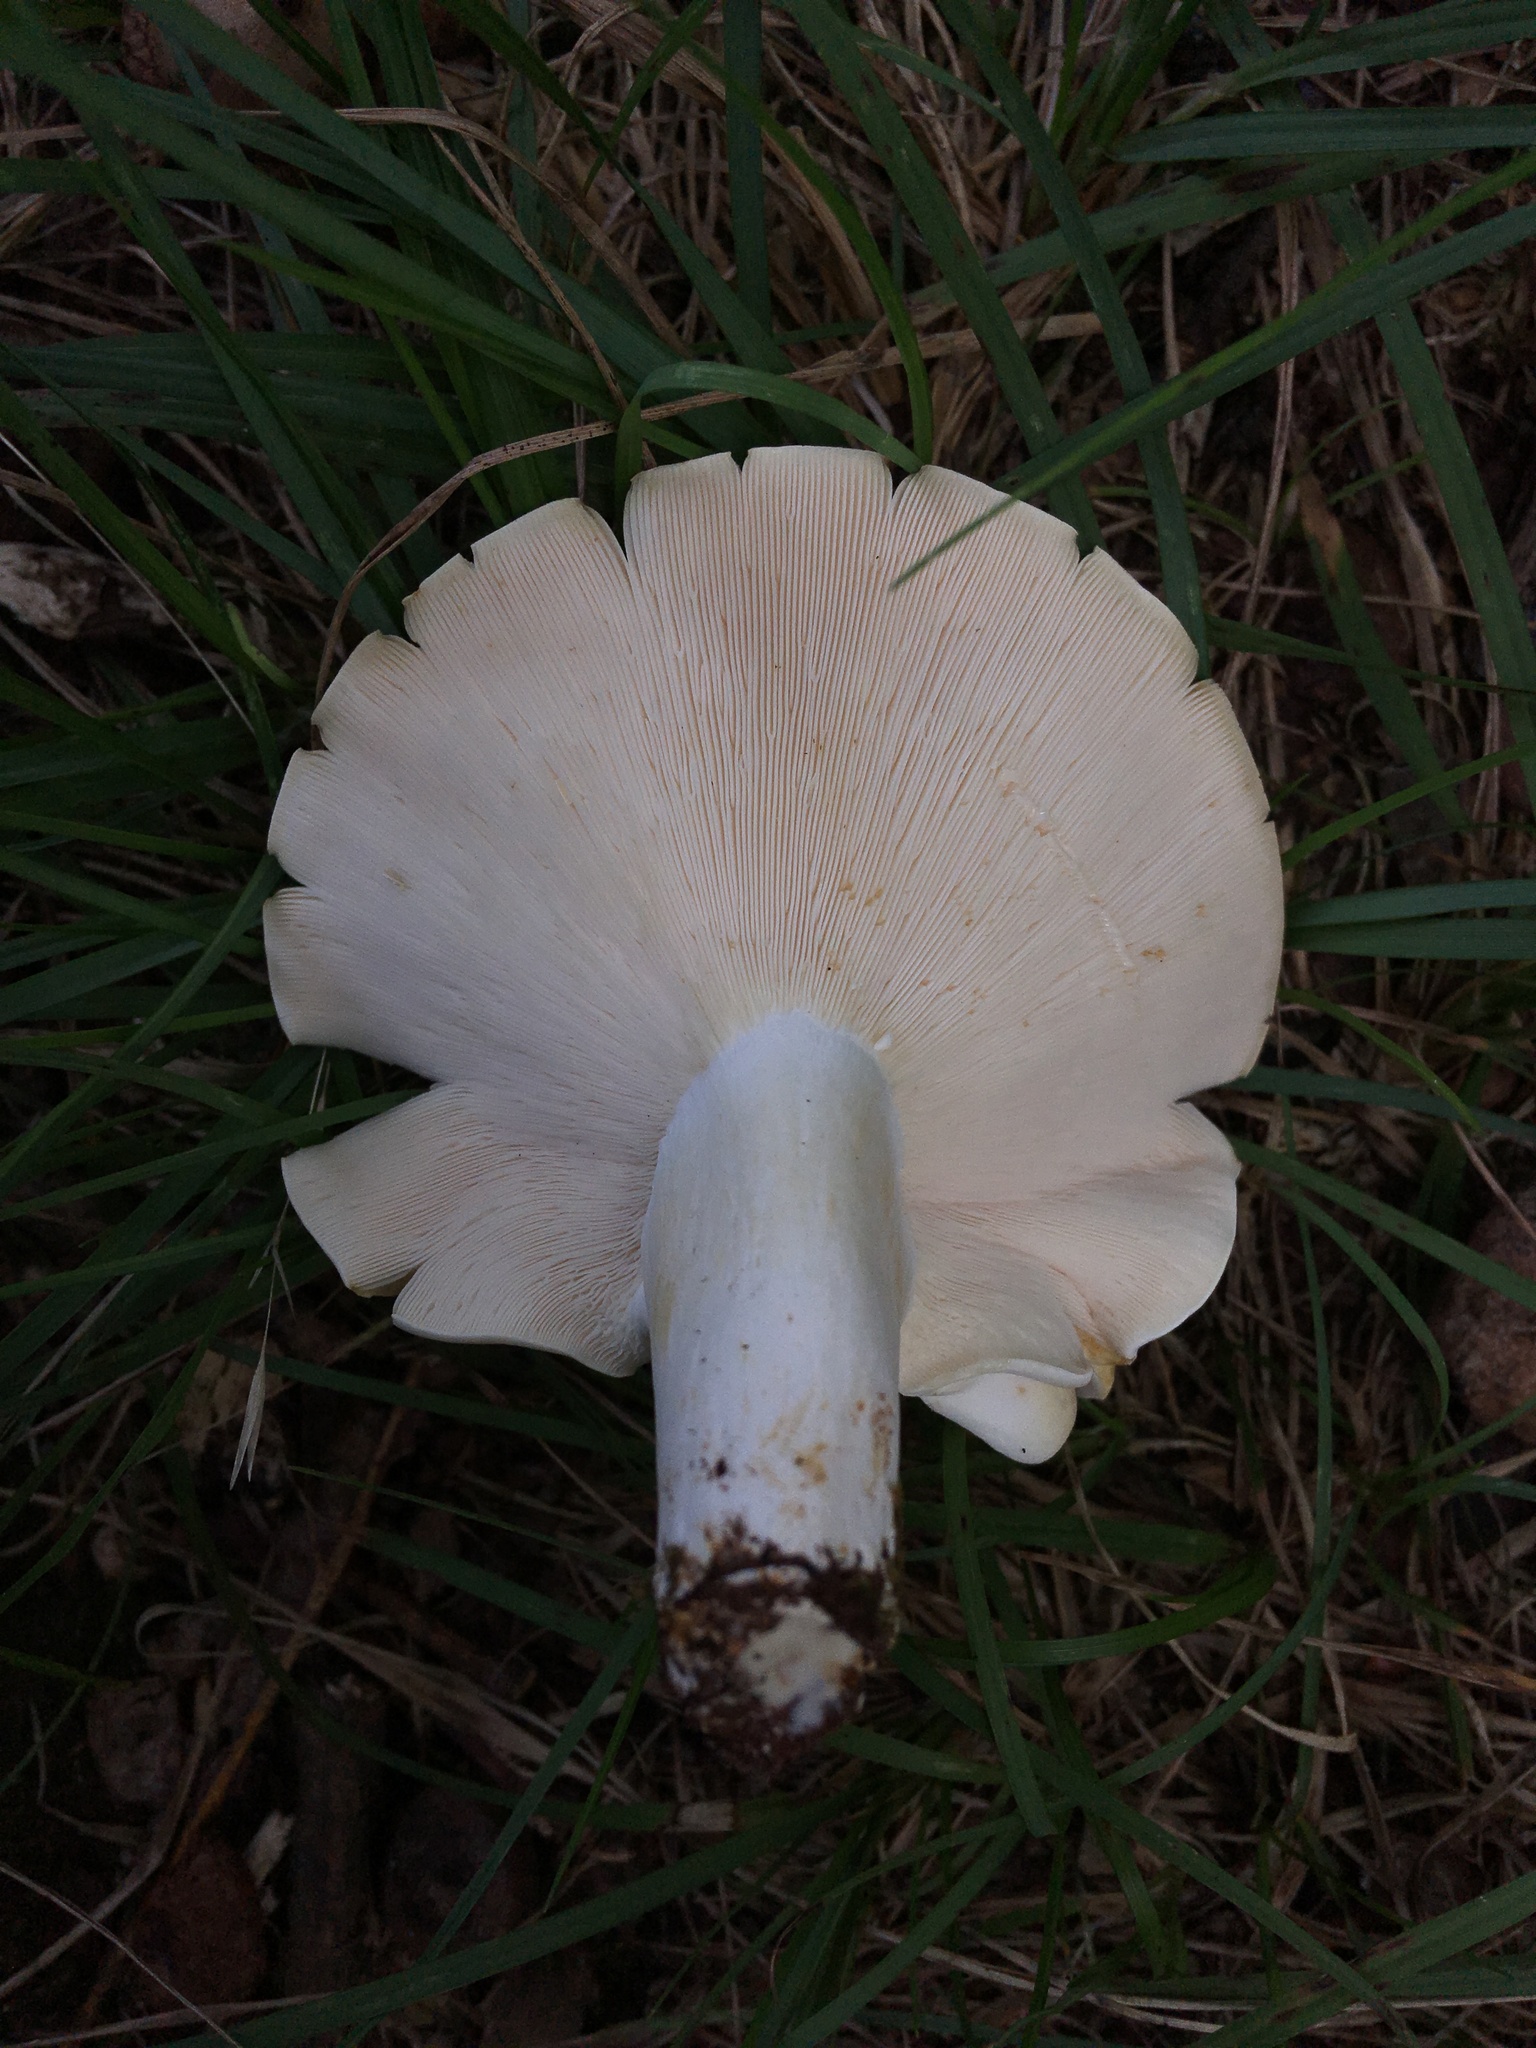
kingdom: Fungi
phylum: Basidiomycota
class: Agaricomycetes
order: Russulales
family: Russulaceae
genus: Lactifluus
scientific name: Lactifluus piperatus
